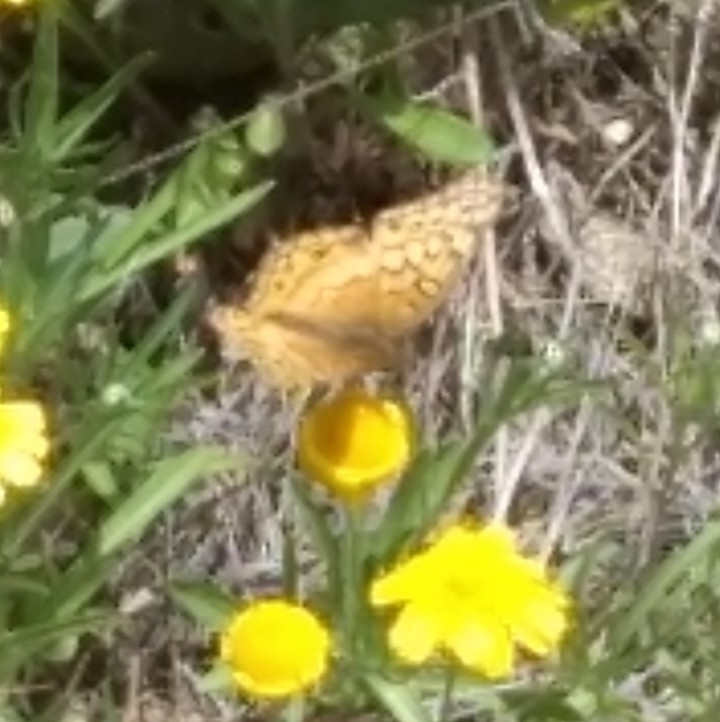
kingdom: Animalia
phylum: Arthropoda
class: Insecta
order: Lepidoptera
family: Nymphalidae
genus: Chlosyne
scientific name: Chlosyne nycteis
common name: Silvery checkerspot
